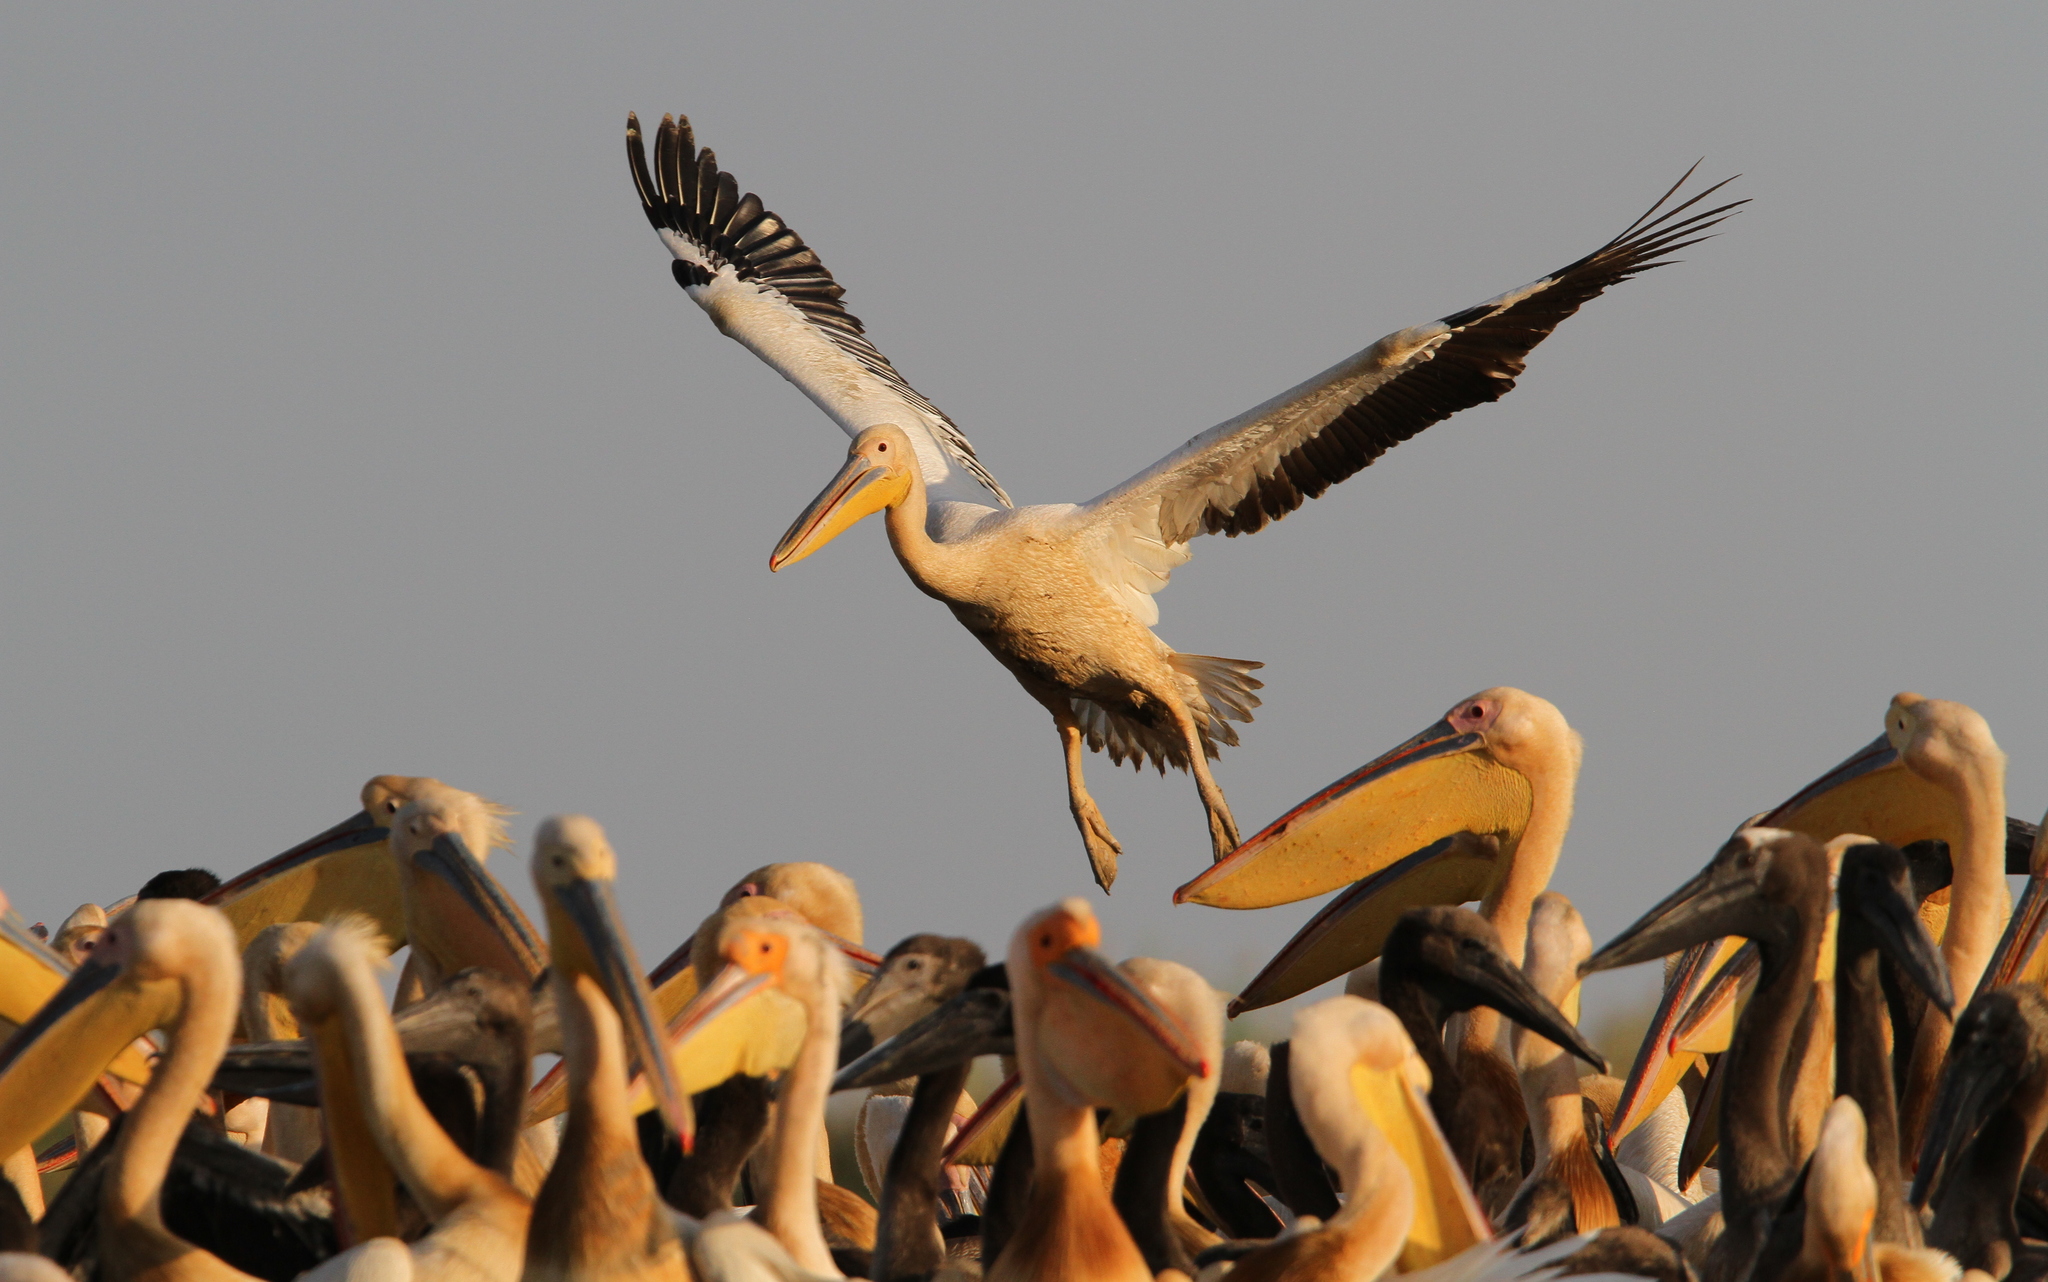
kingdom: Animalia
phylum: Chordata
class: Aves
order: Pelecaniformes
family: Pelecanidae
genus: Pelecanus
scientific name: Pelecanus onocrotalus
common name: Great white pelican
